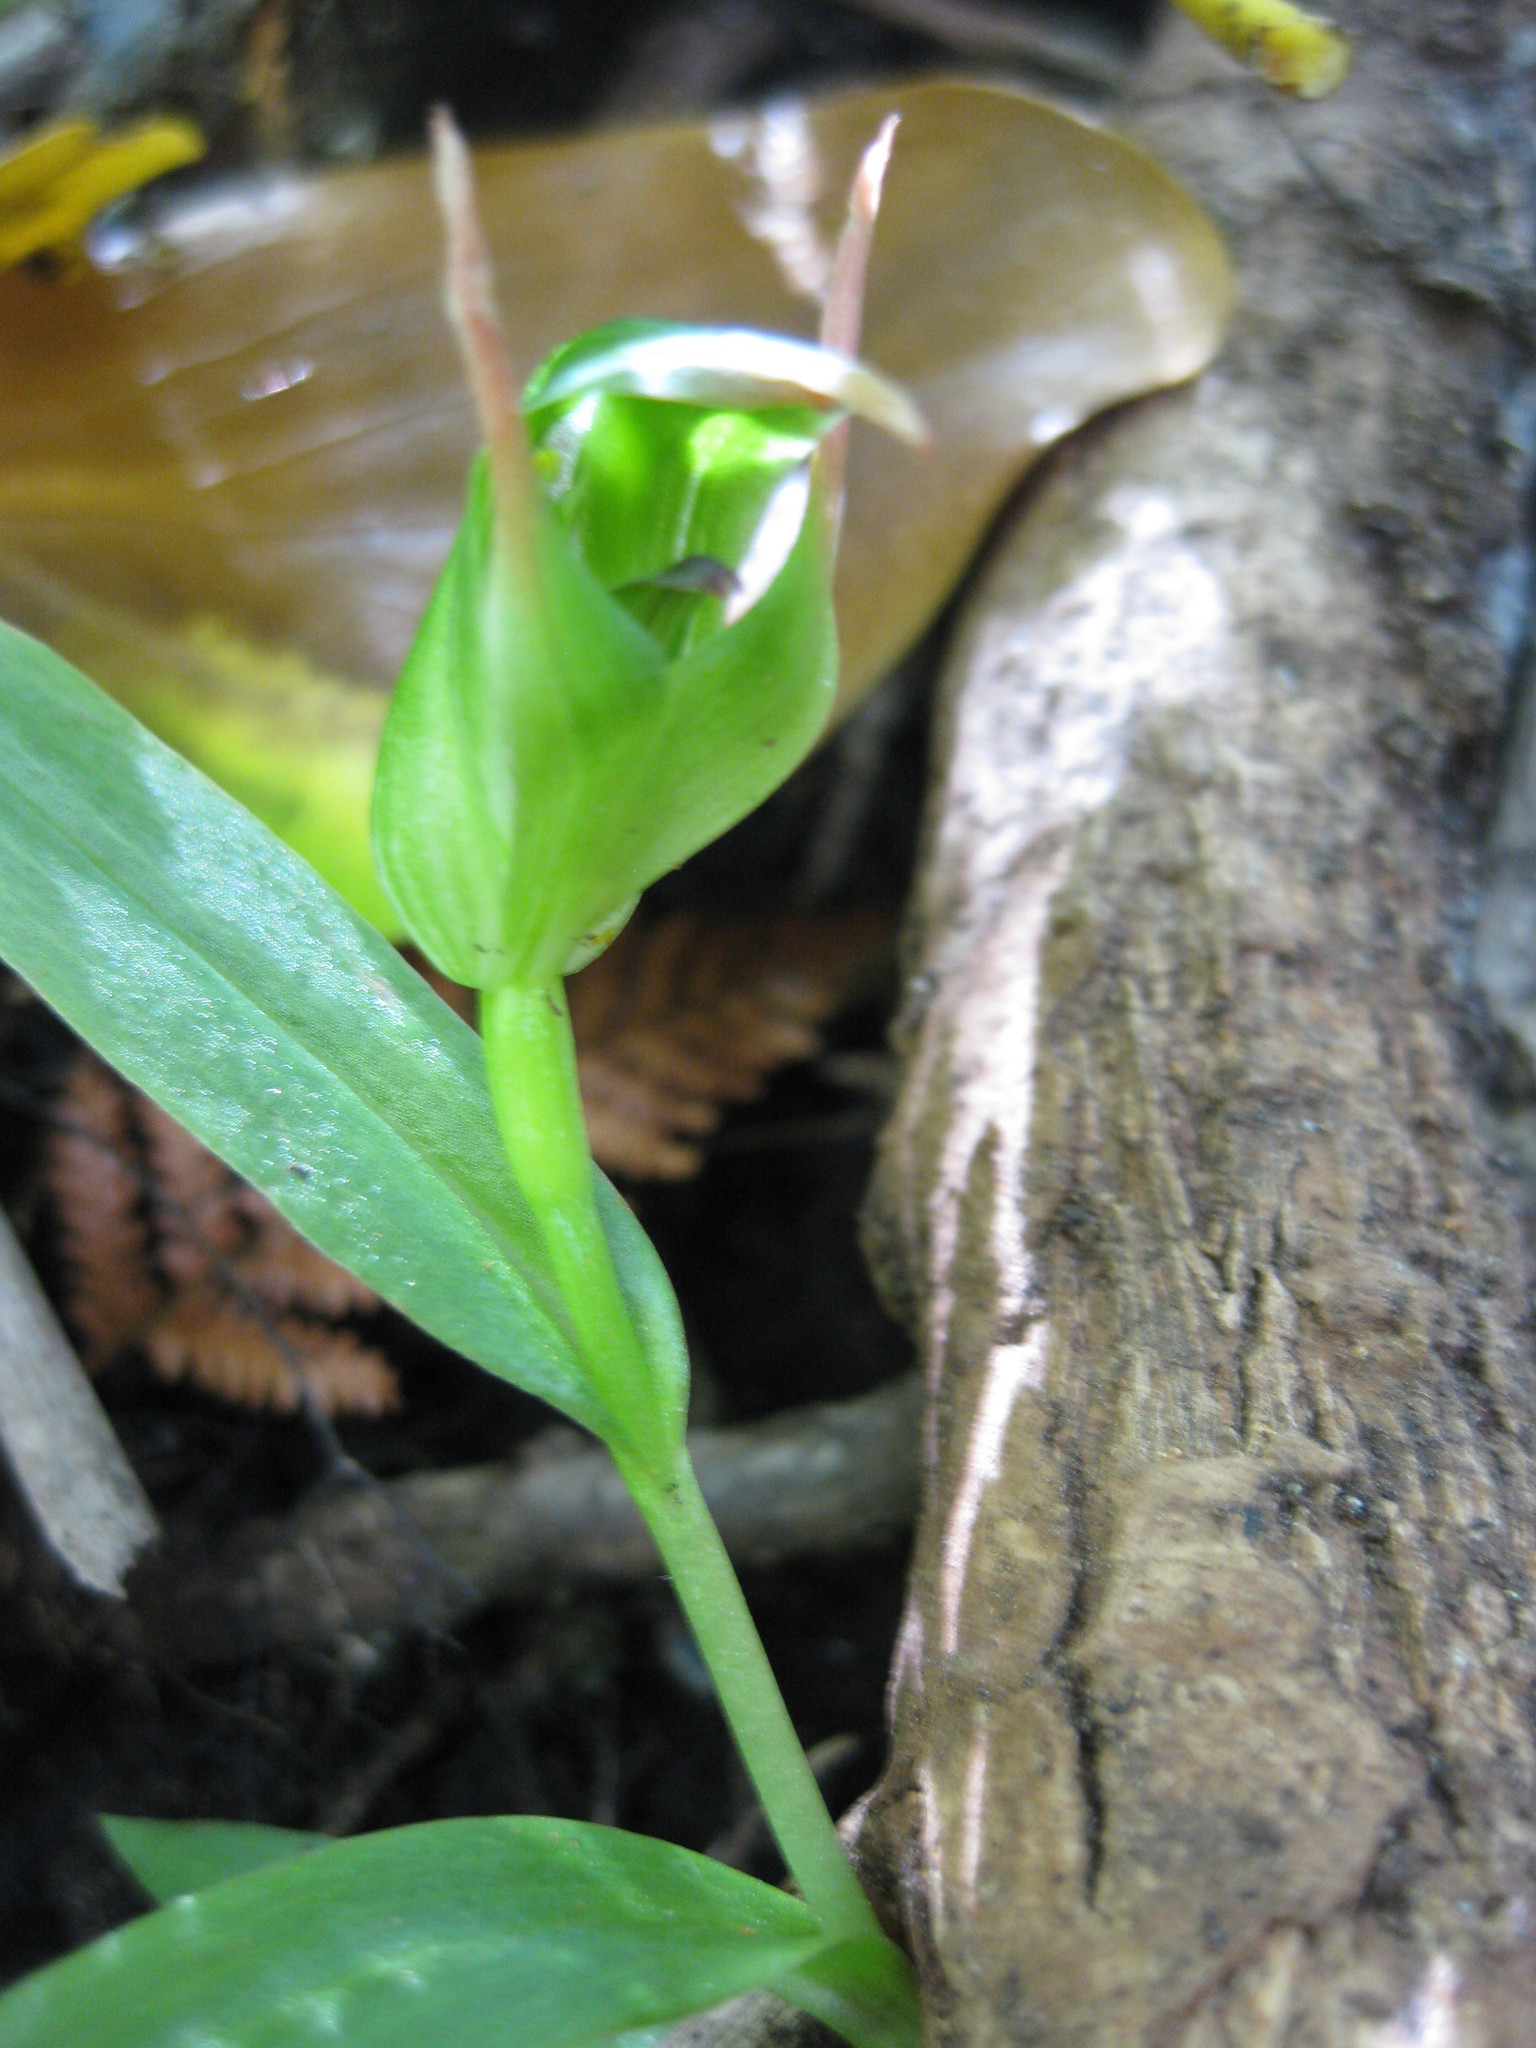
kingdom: Plantae
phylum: Tracheophyta
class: Liliopsida
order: Asparagales
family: Orchidaceae
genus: Pterostylis
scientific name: Pterostylis auriculata
